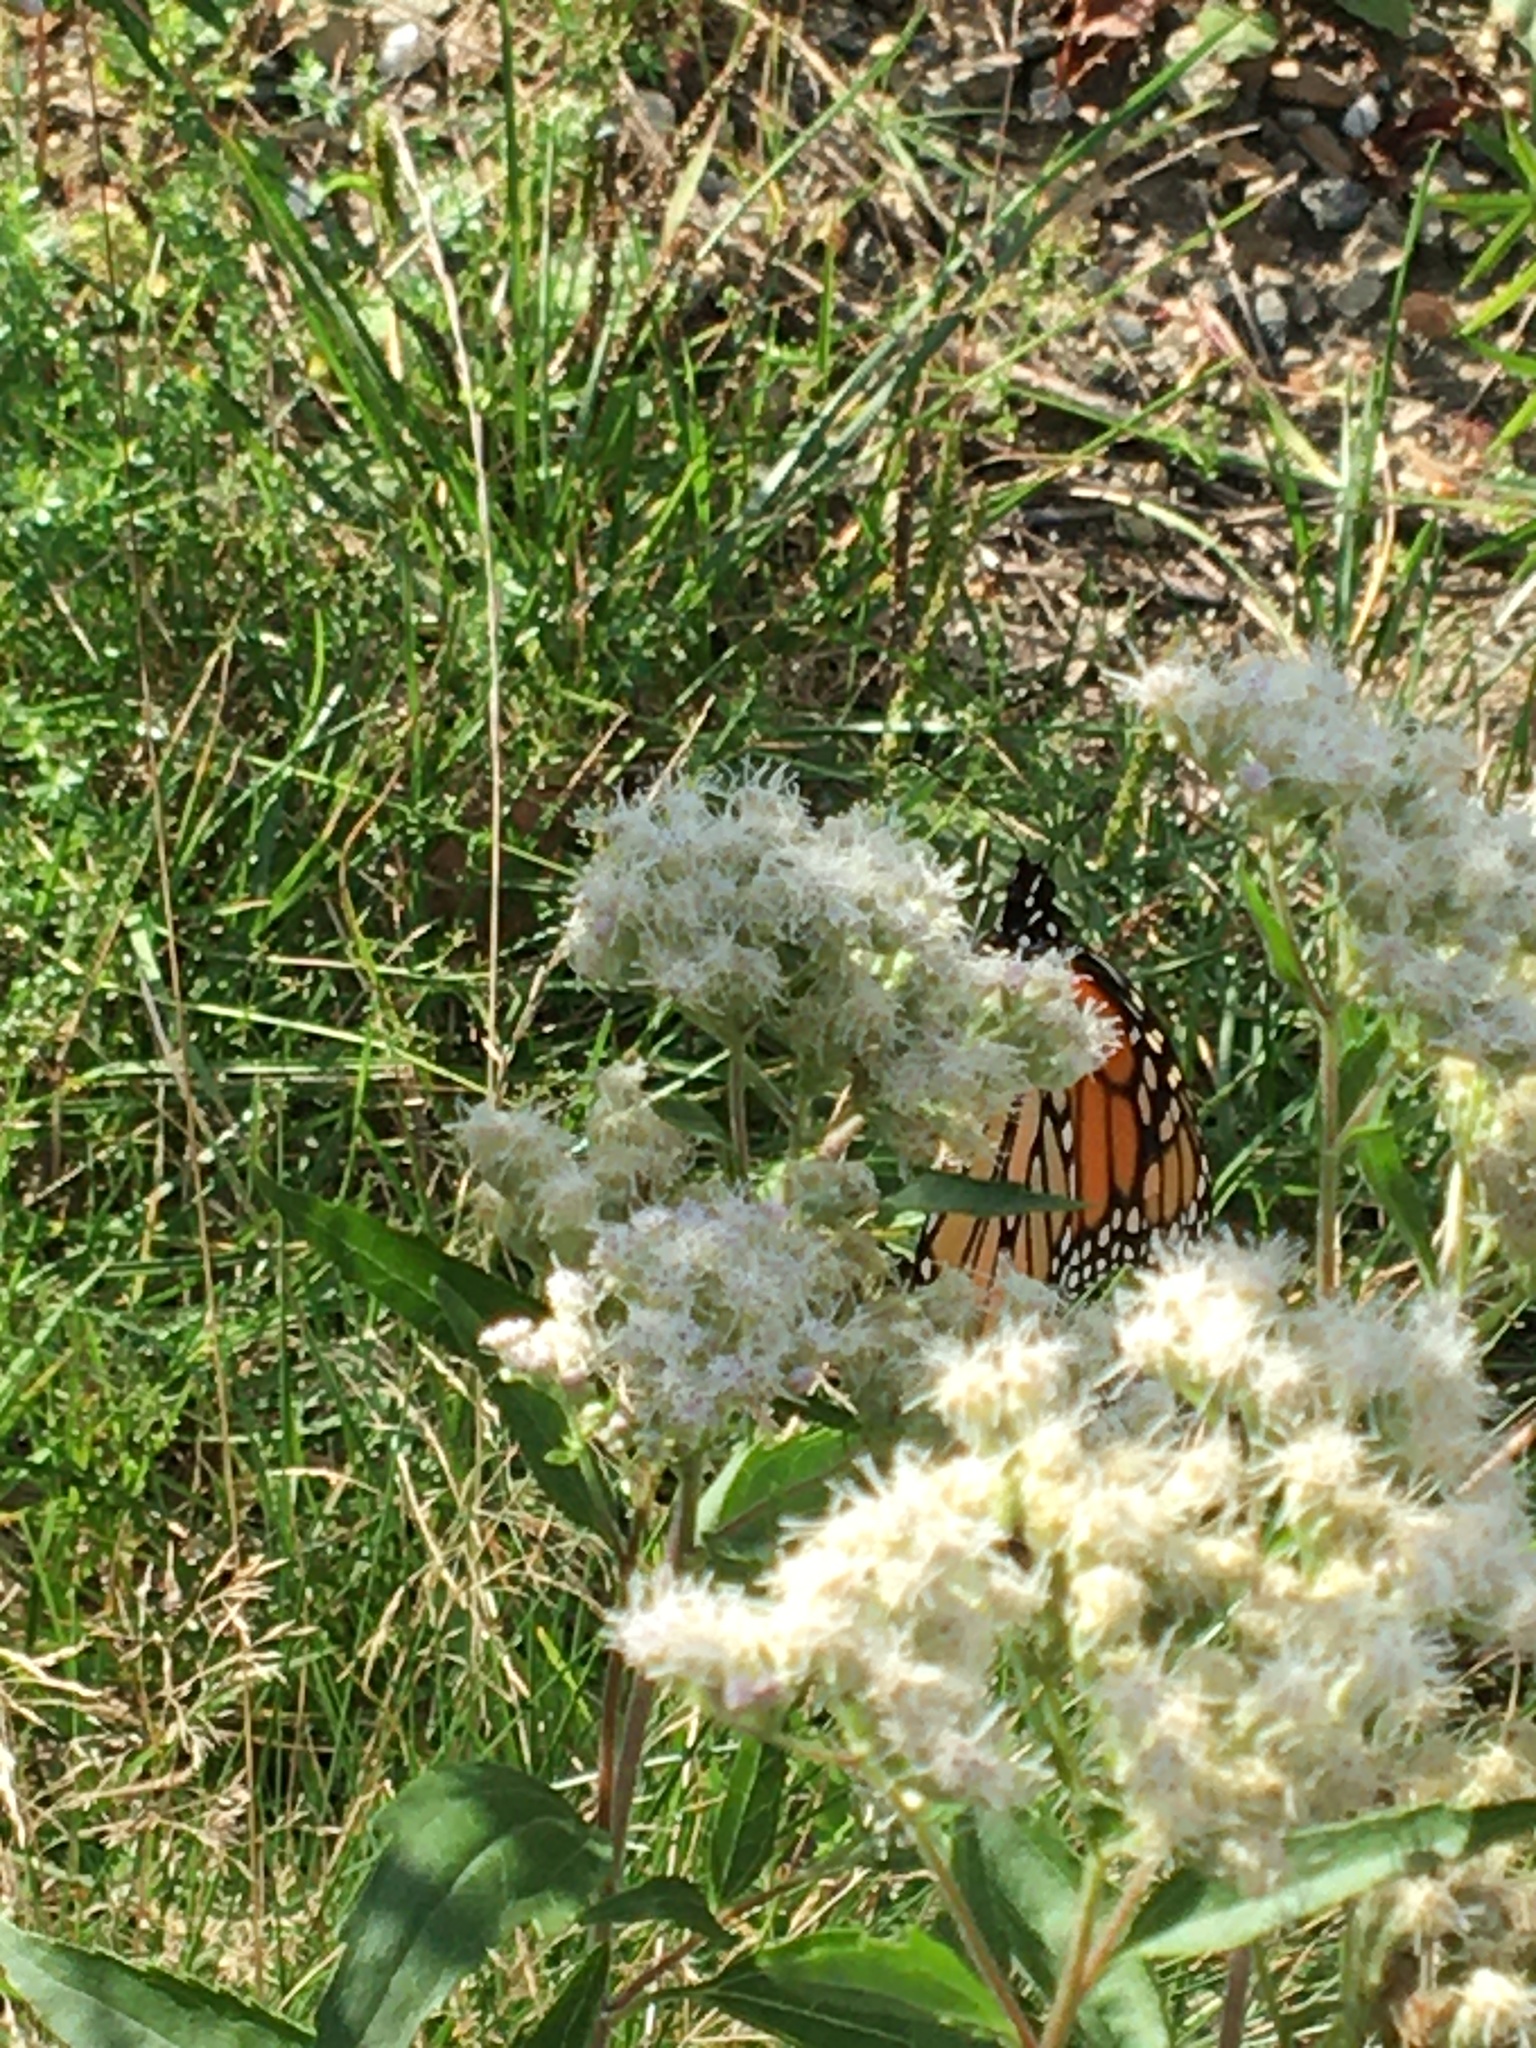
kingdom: Animalia
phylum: Arthropoda
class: Insecta
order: Lepidoptera
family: Nymphalidae
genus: Danaus
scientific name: Danaus plexippus
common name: Monarch
